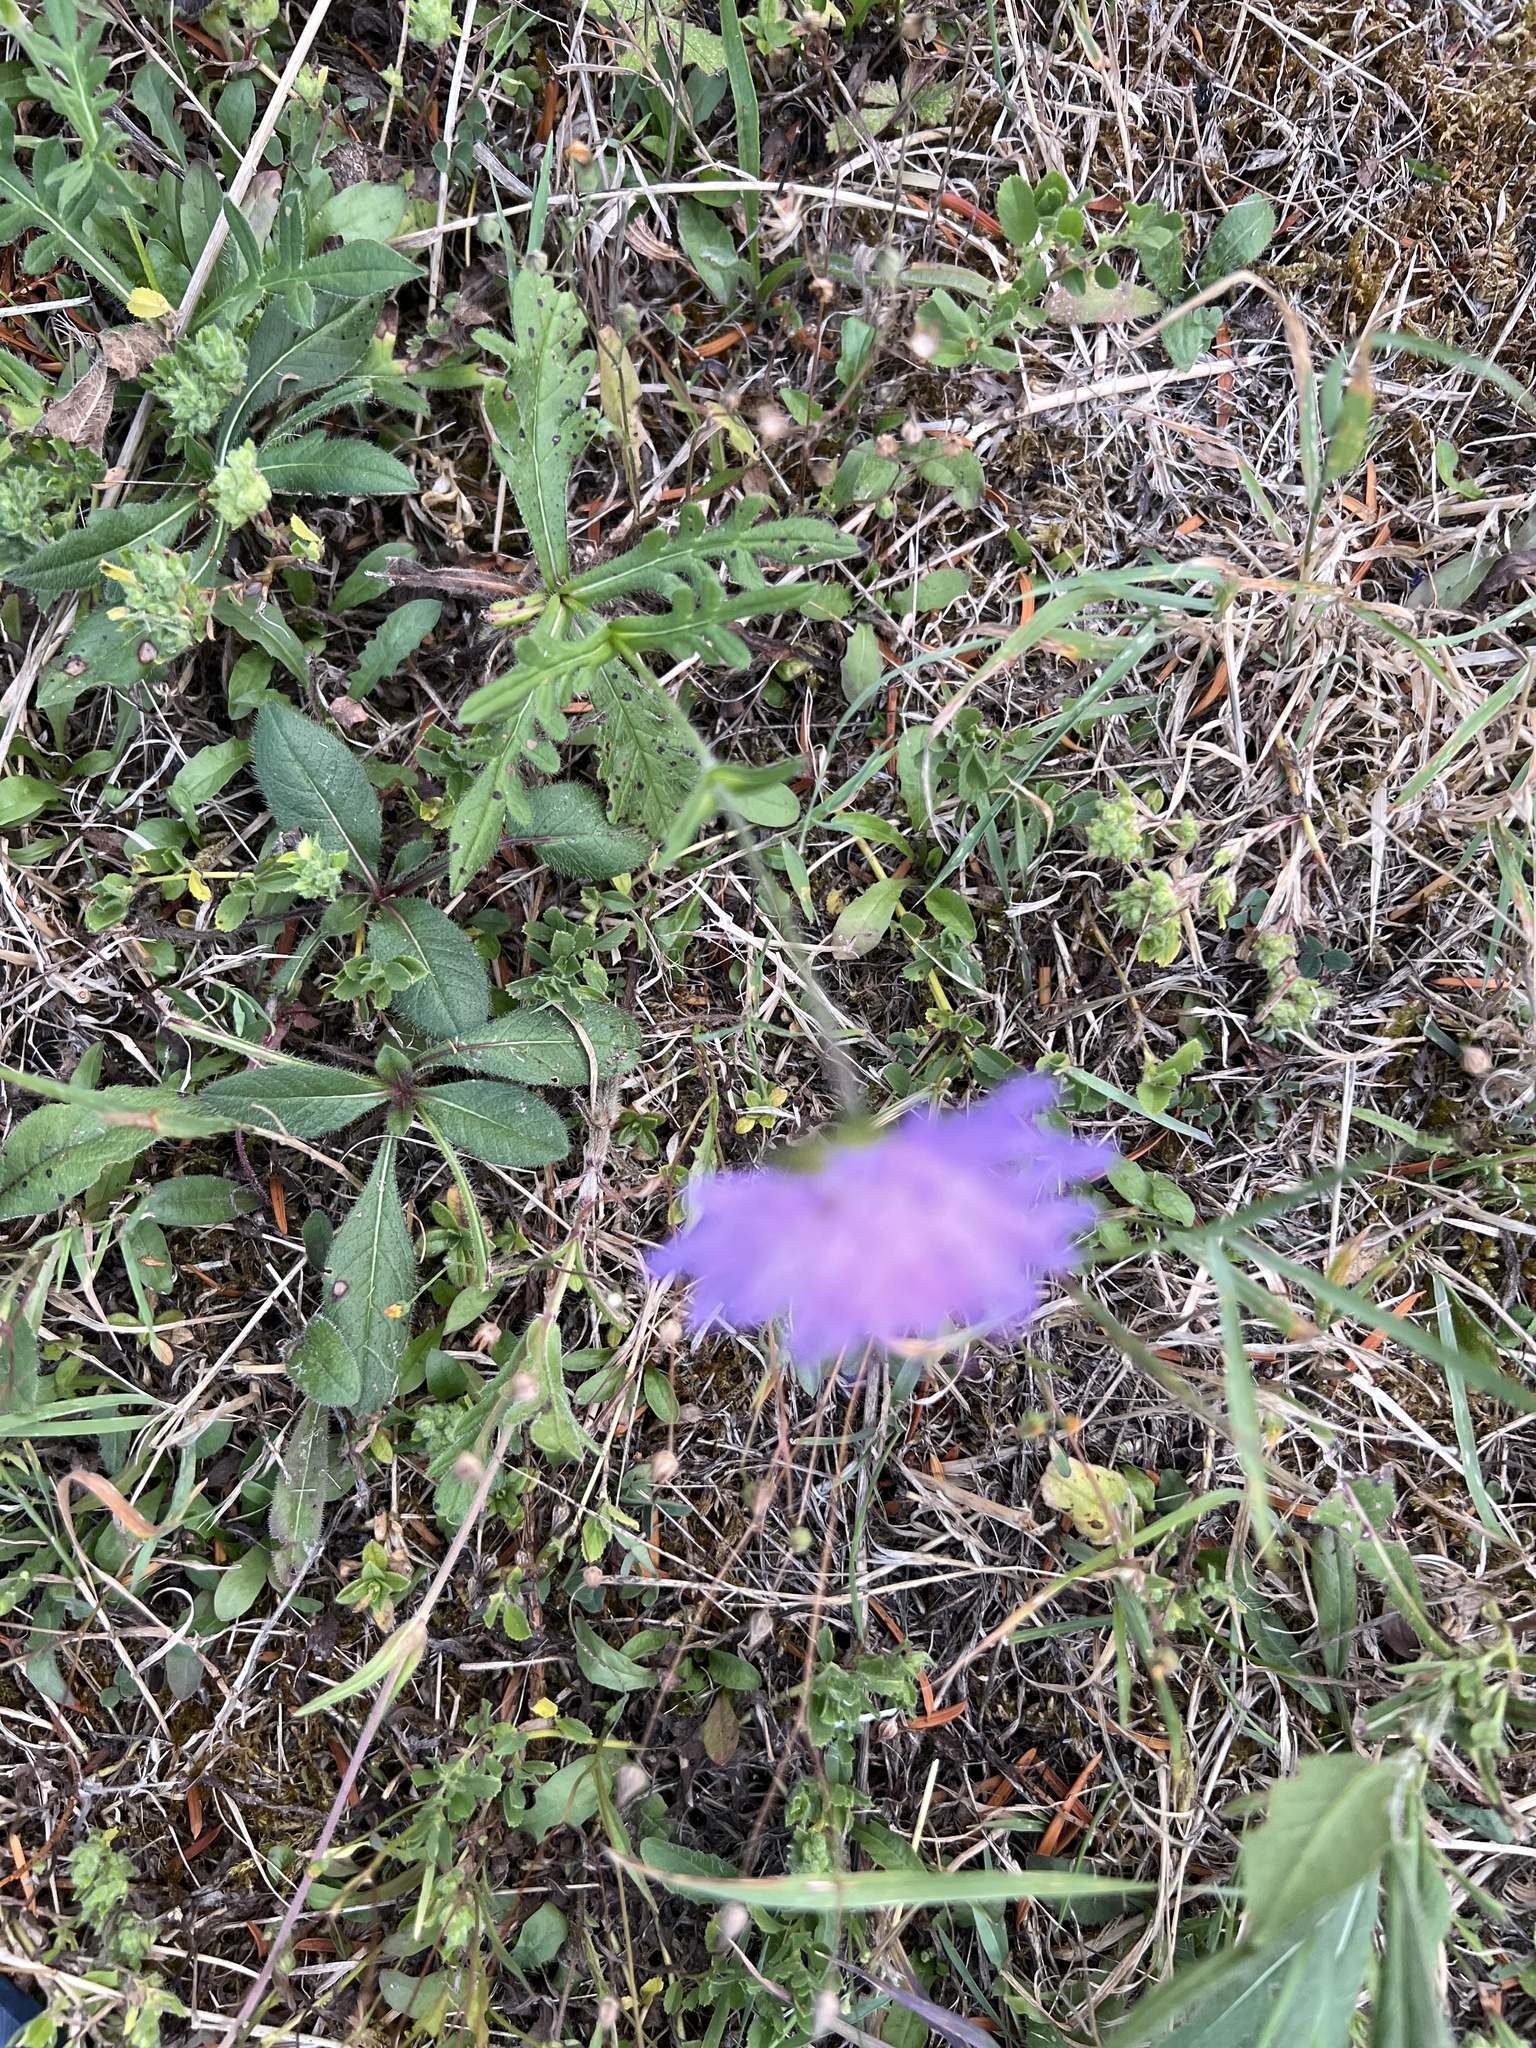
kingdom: Plantae
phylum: Tracheophyta
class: Magnoliopsida
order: Dipsacales
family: Caprifoliaceae
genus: Knautia
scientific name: Knautia arvensis
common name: Field scabiosa
